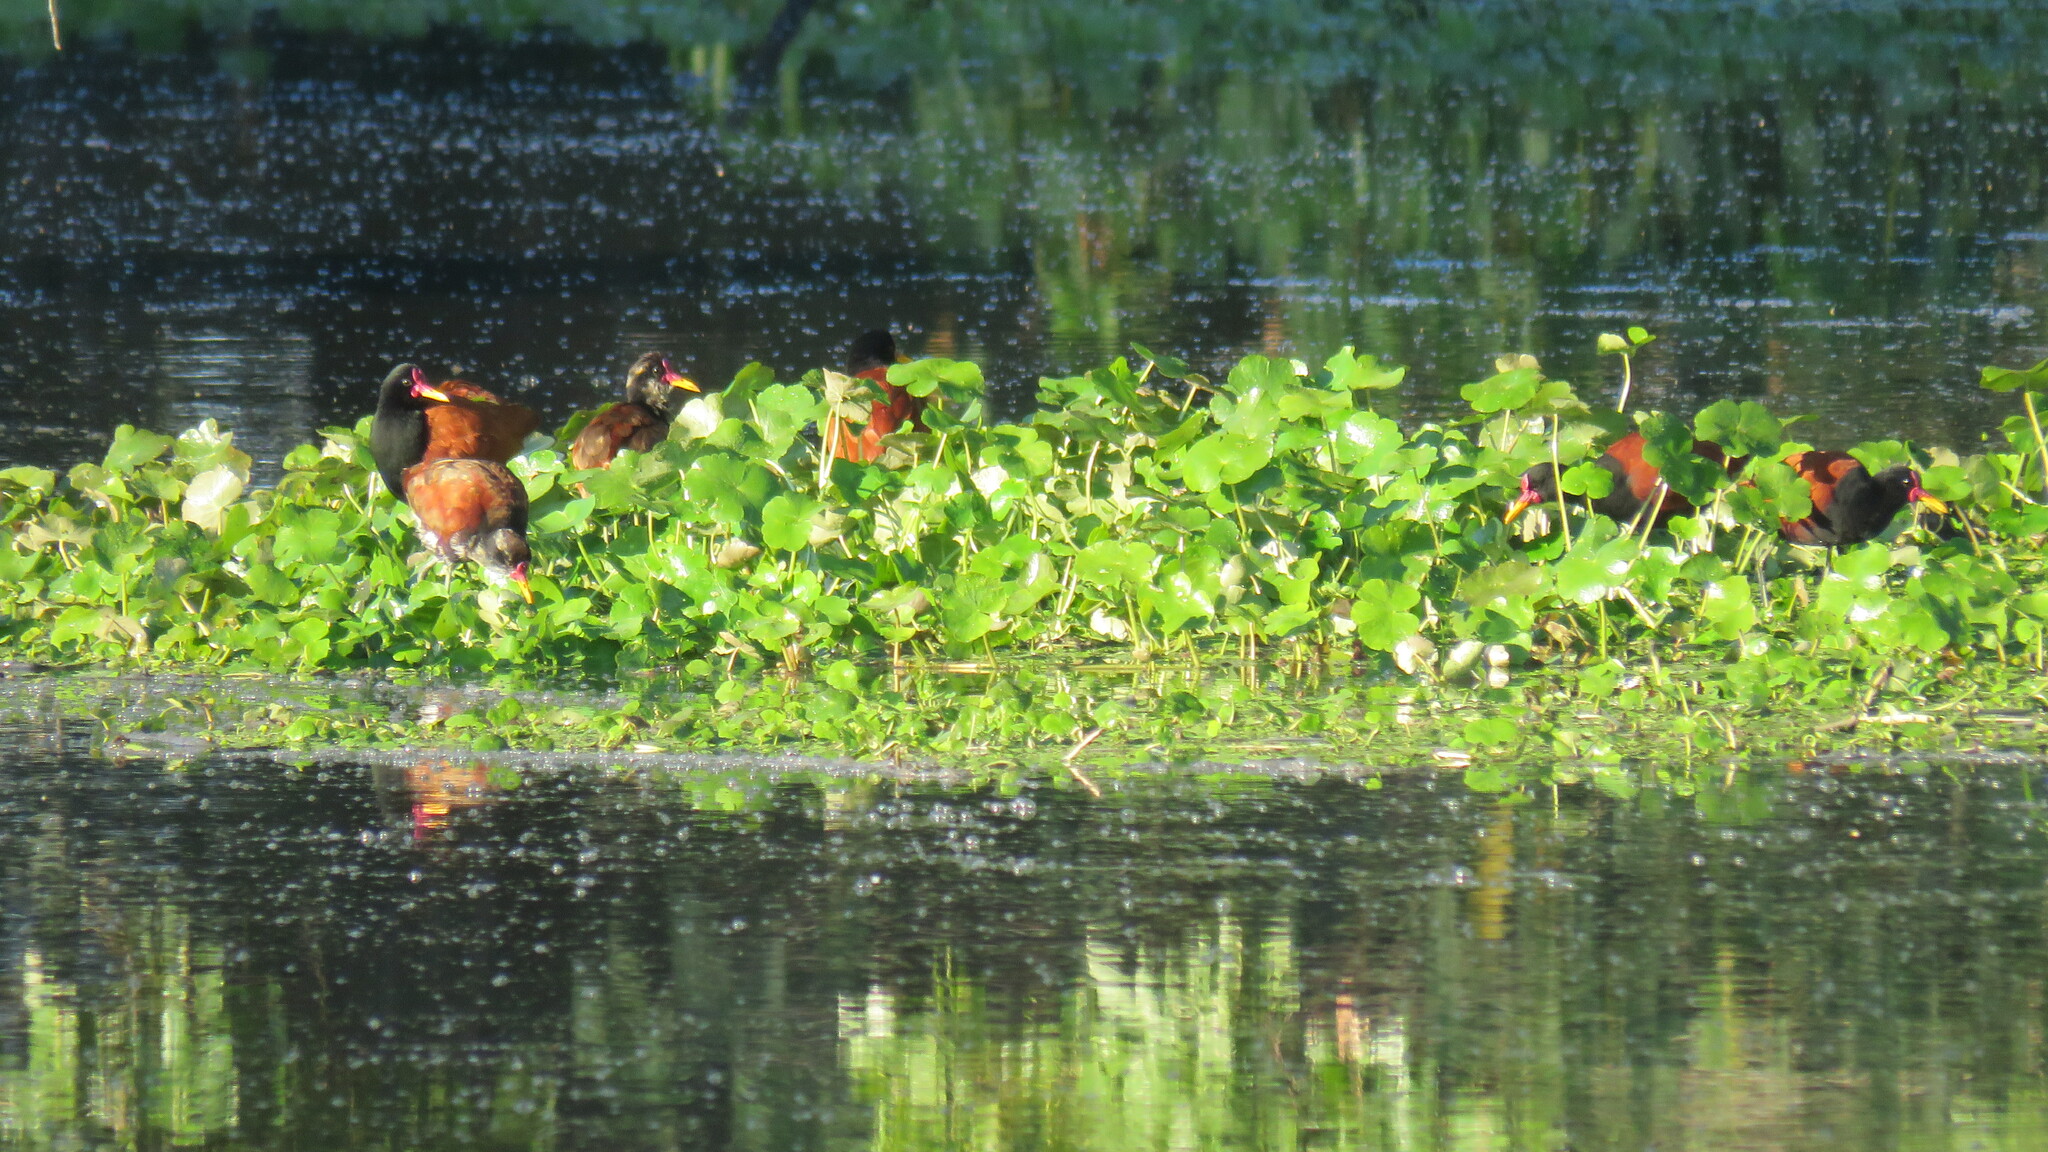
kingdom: Animalia
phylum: Chordata
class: Aves
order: Charadriiformes
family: Jacanidae
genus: Jacana
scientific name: Jacana jacana
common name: Wattled jacana
